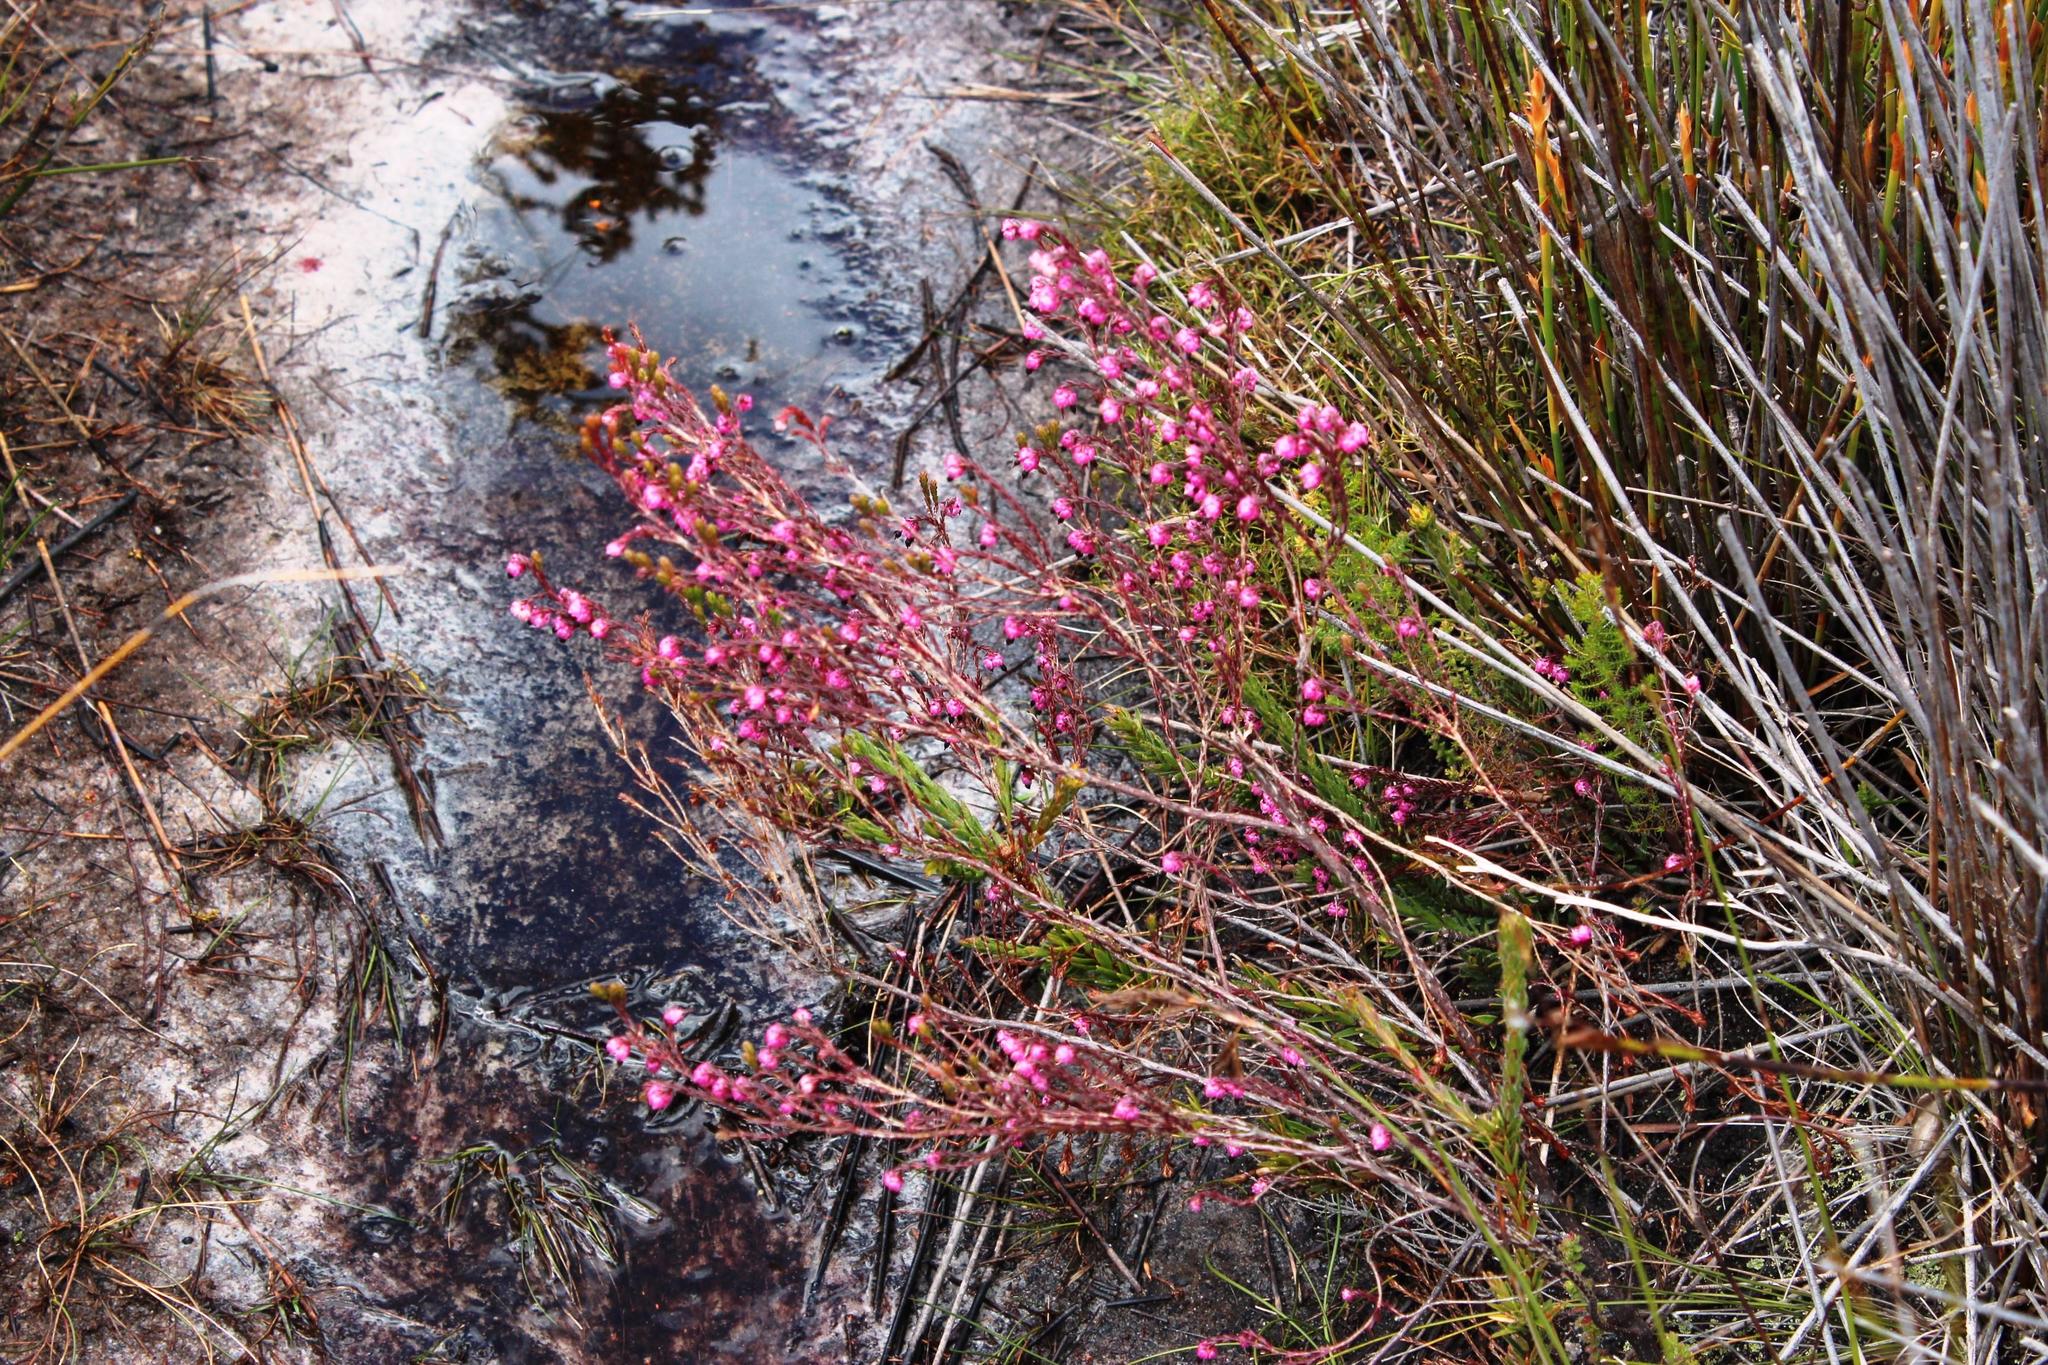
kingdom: Plantae
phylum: Tracheophyta
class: Magnoliopsida
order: Ericales
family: Ericaceae
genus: Erica
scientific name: Erica spumosa
